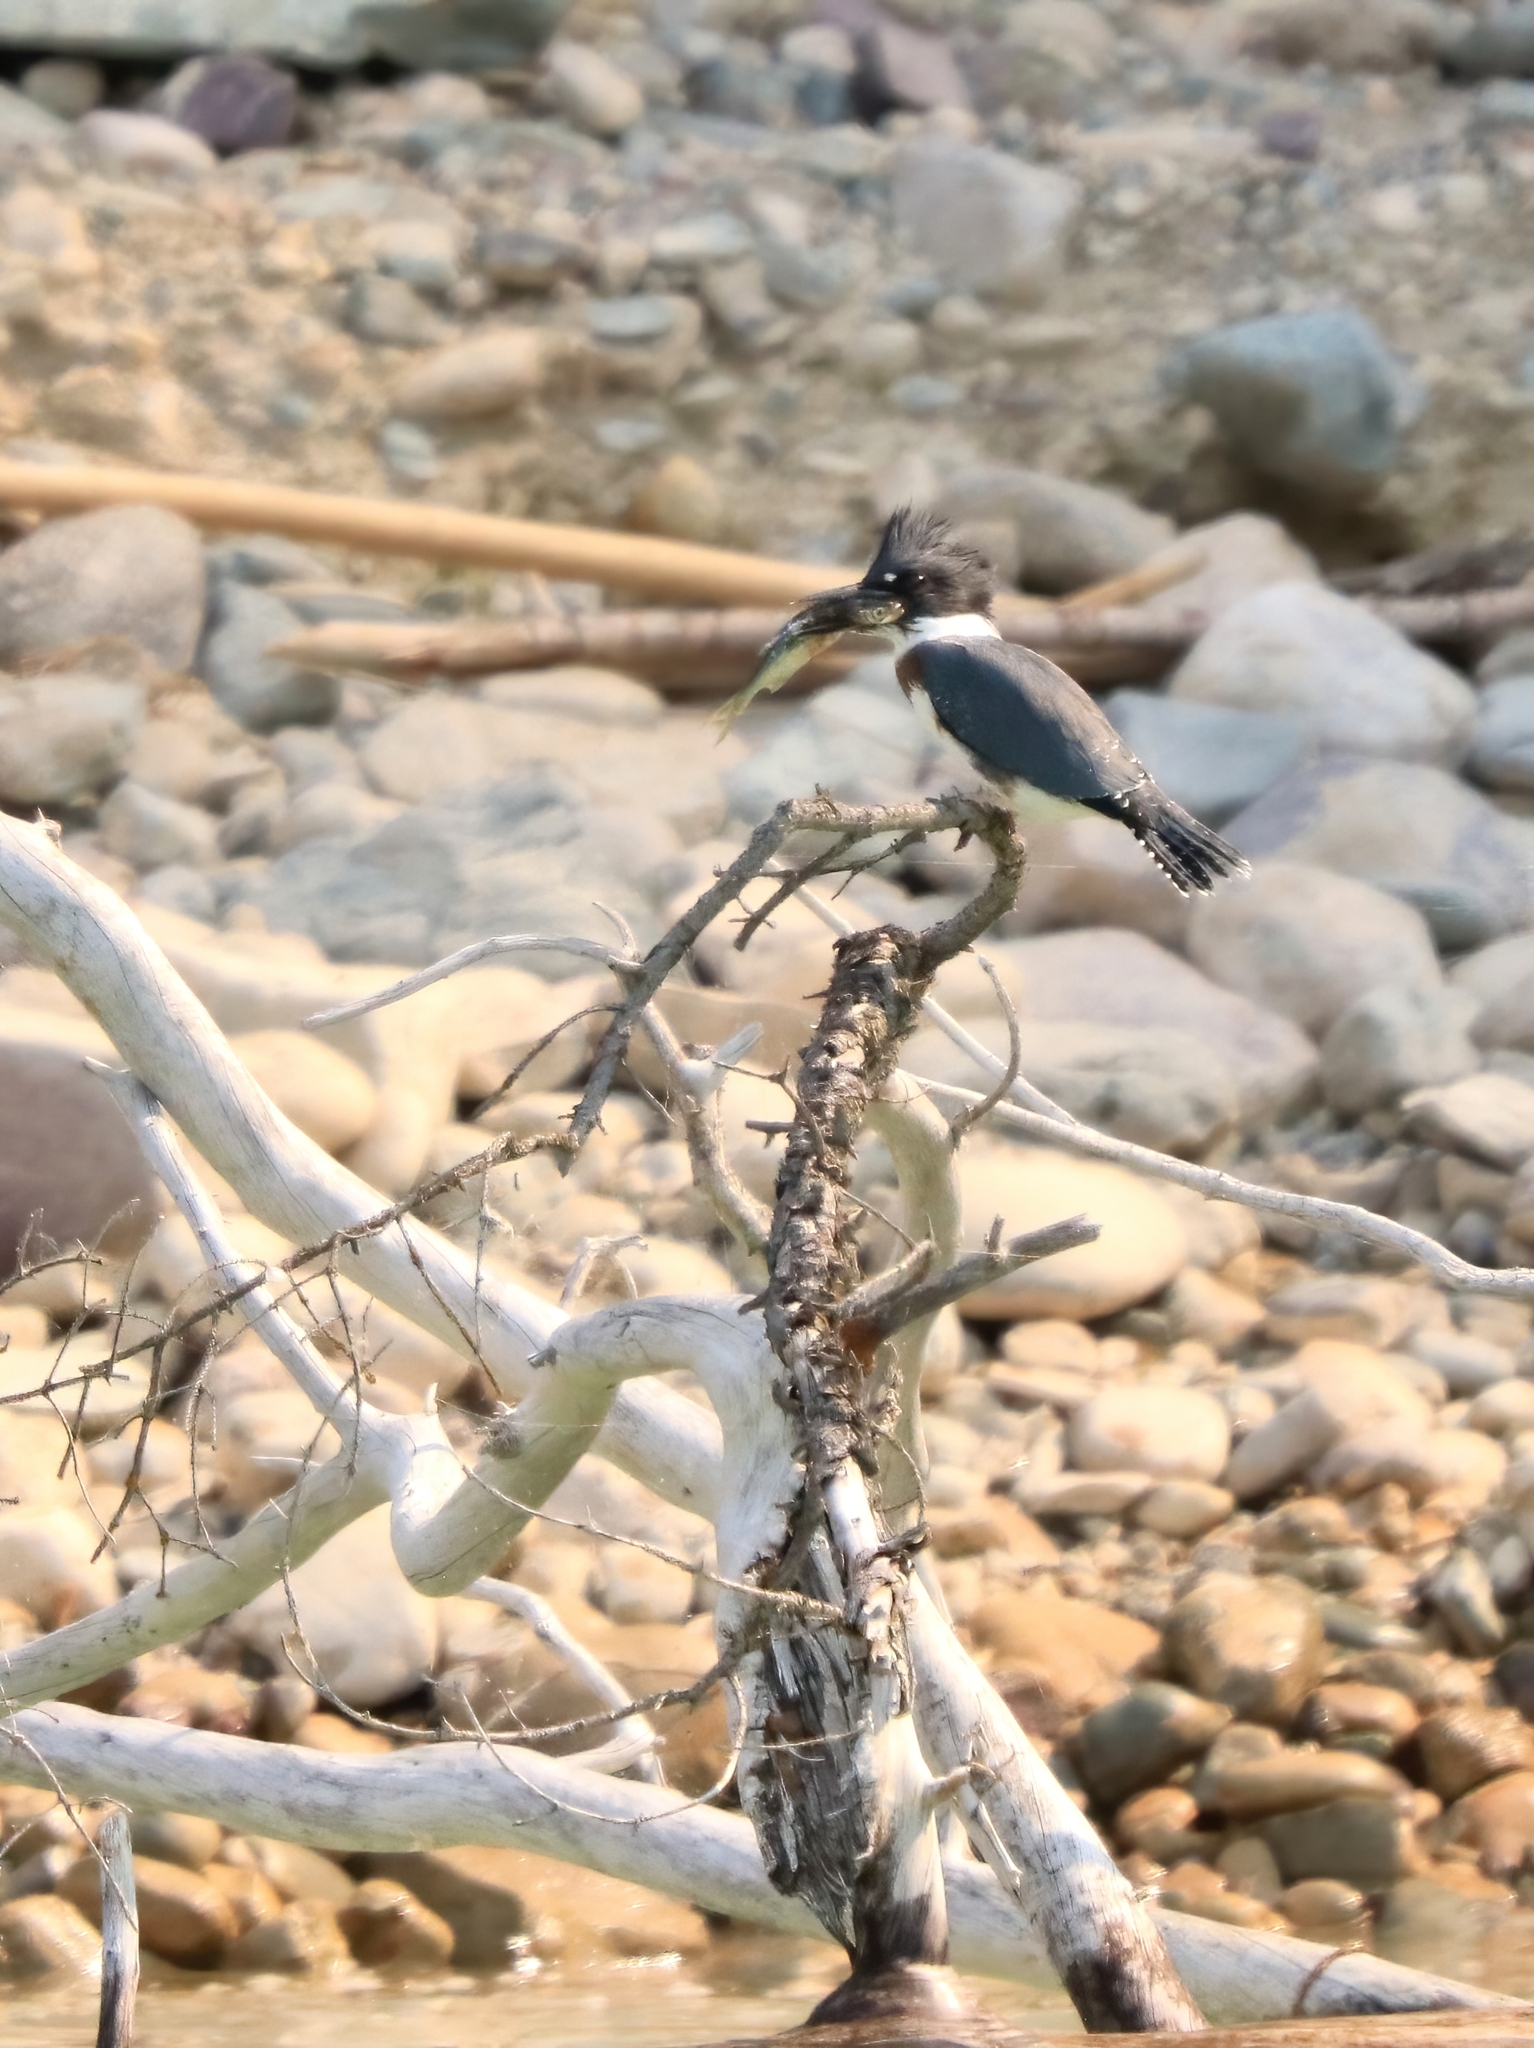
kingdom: Animalia
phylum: Chordata
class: Aves
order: Coraciiformes
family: Alcedinidae
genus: Megaceryle
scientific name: Megaceryle alcyon
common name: Belted kingfisher
